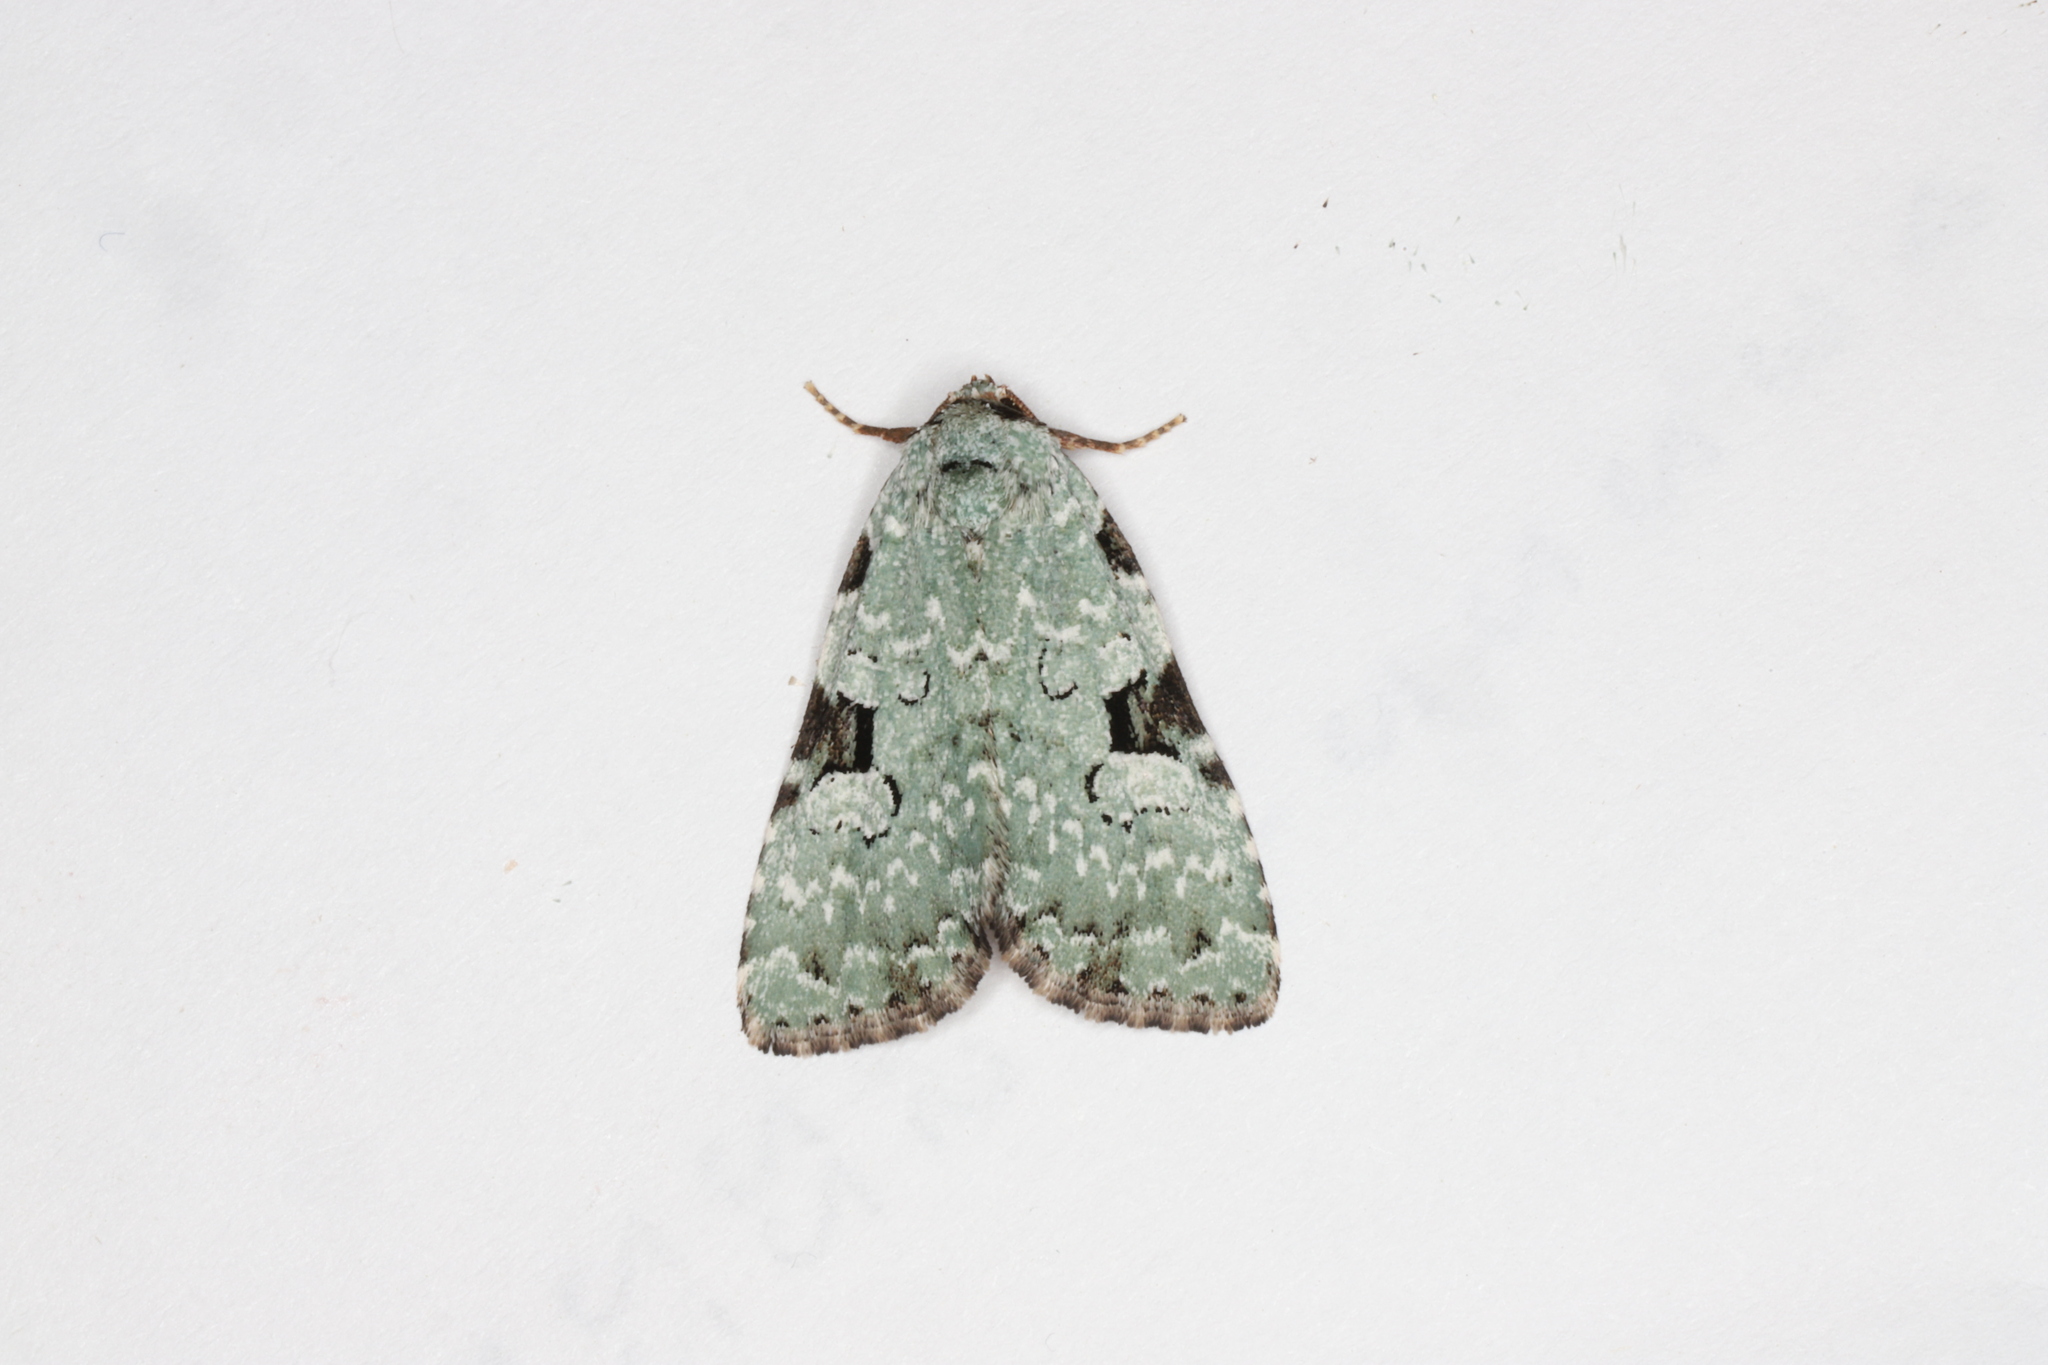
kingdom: Animalia
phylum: Arthropoda
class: Insecta
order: Lepidoptera
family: Noctuidae
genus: Leuconycta
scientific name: Leuconycta diphteroides
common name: Green leuconycta moth
